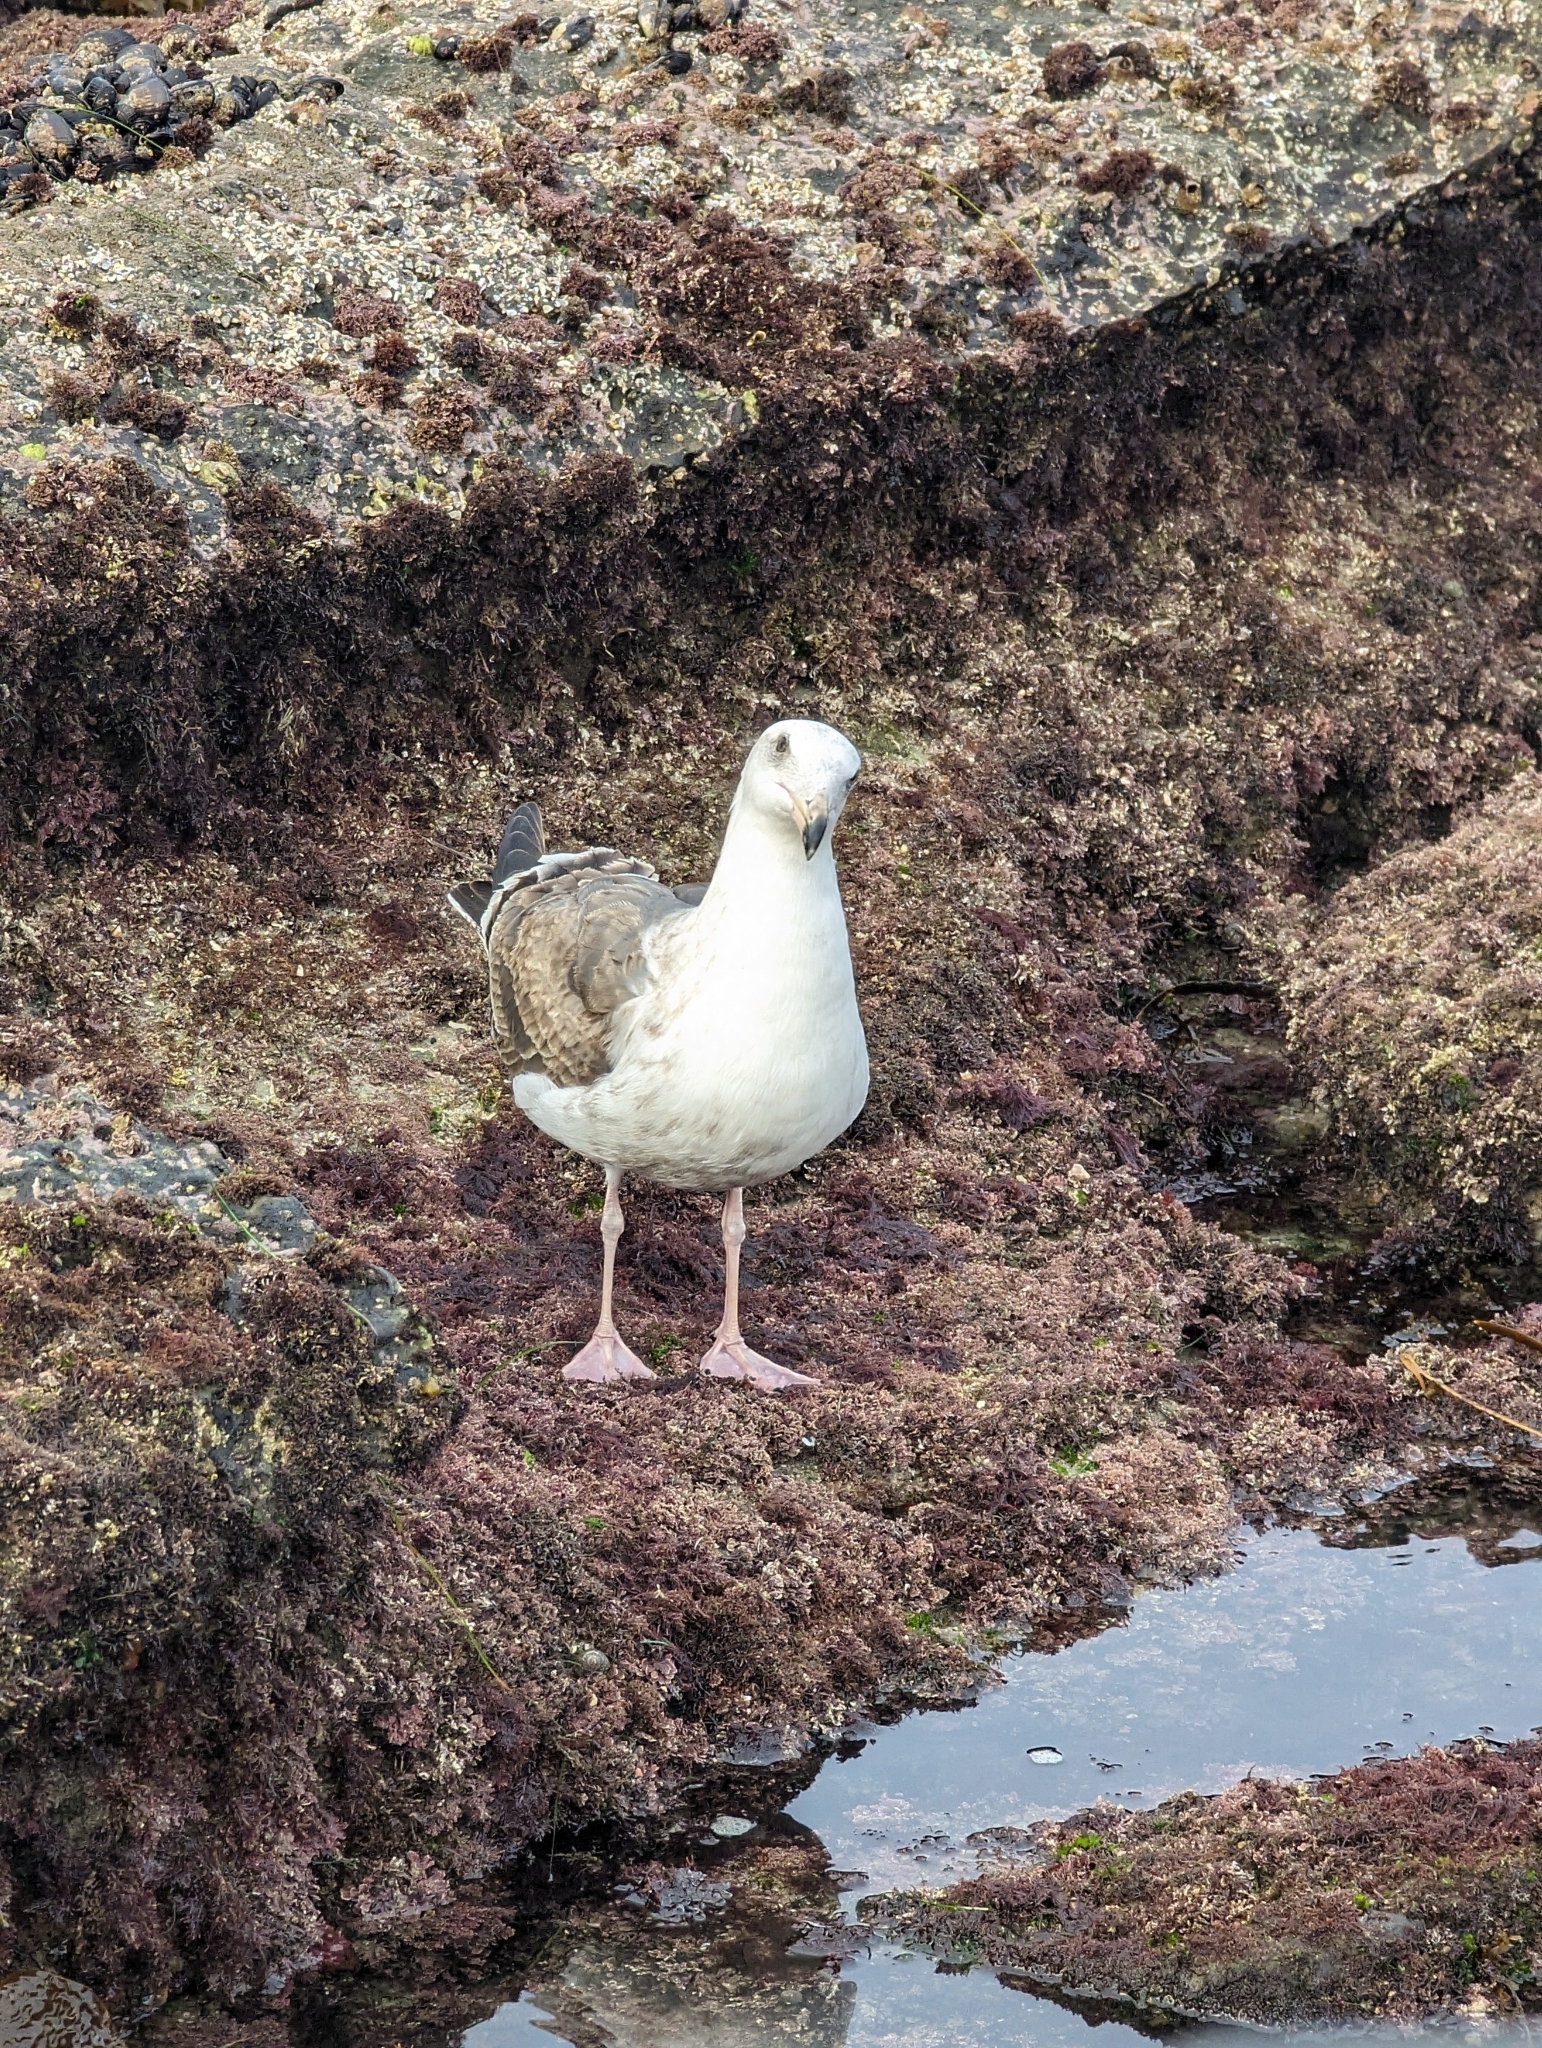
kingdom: Animalia
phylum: Chordata
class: Aves
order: Charadriiformes
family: Laridae
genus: Larus
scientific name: Larus occidentalis
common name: Western gull
